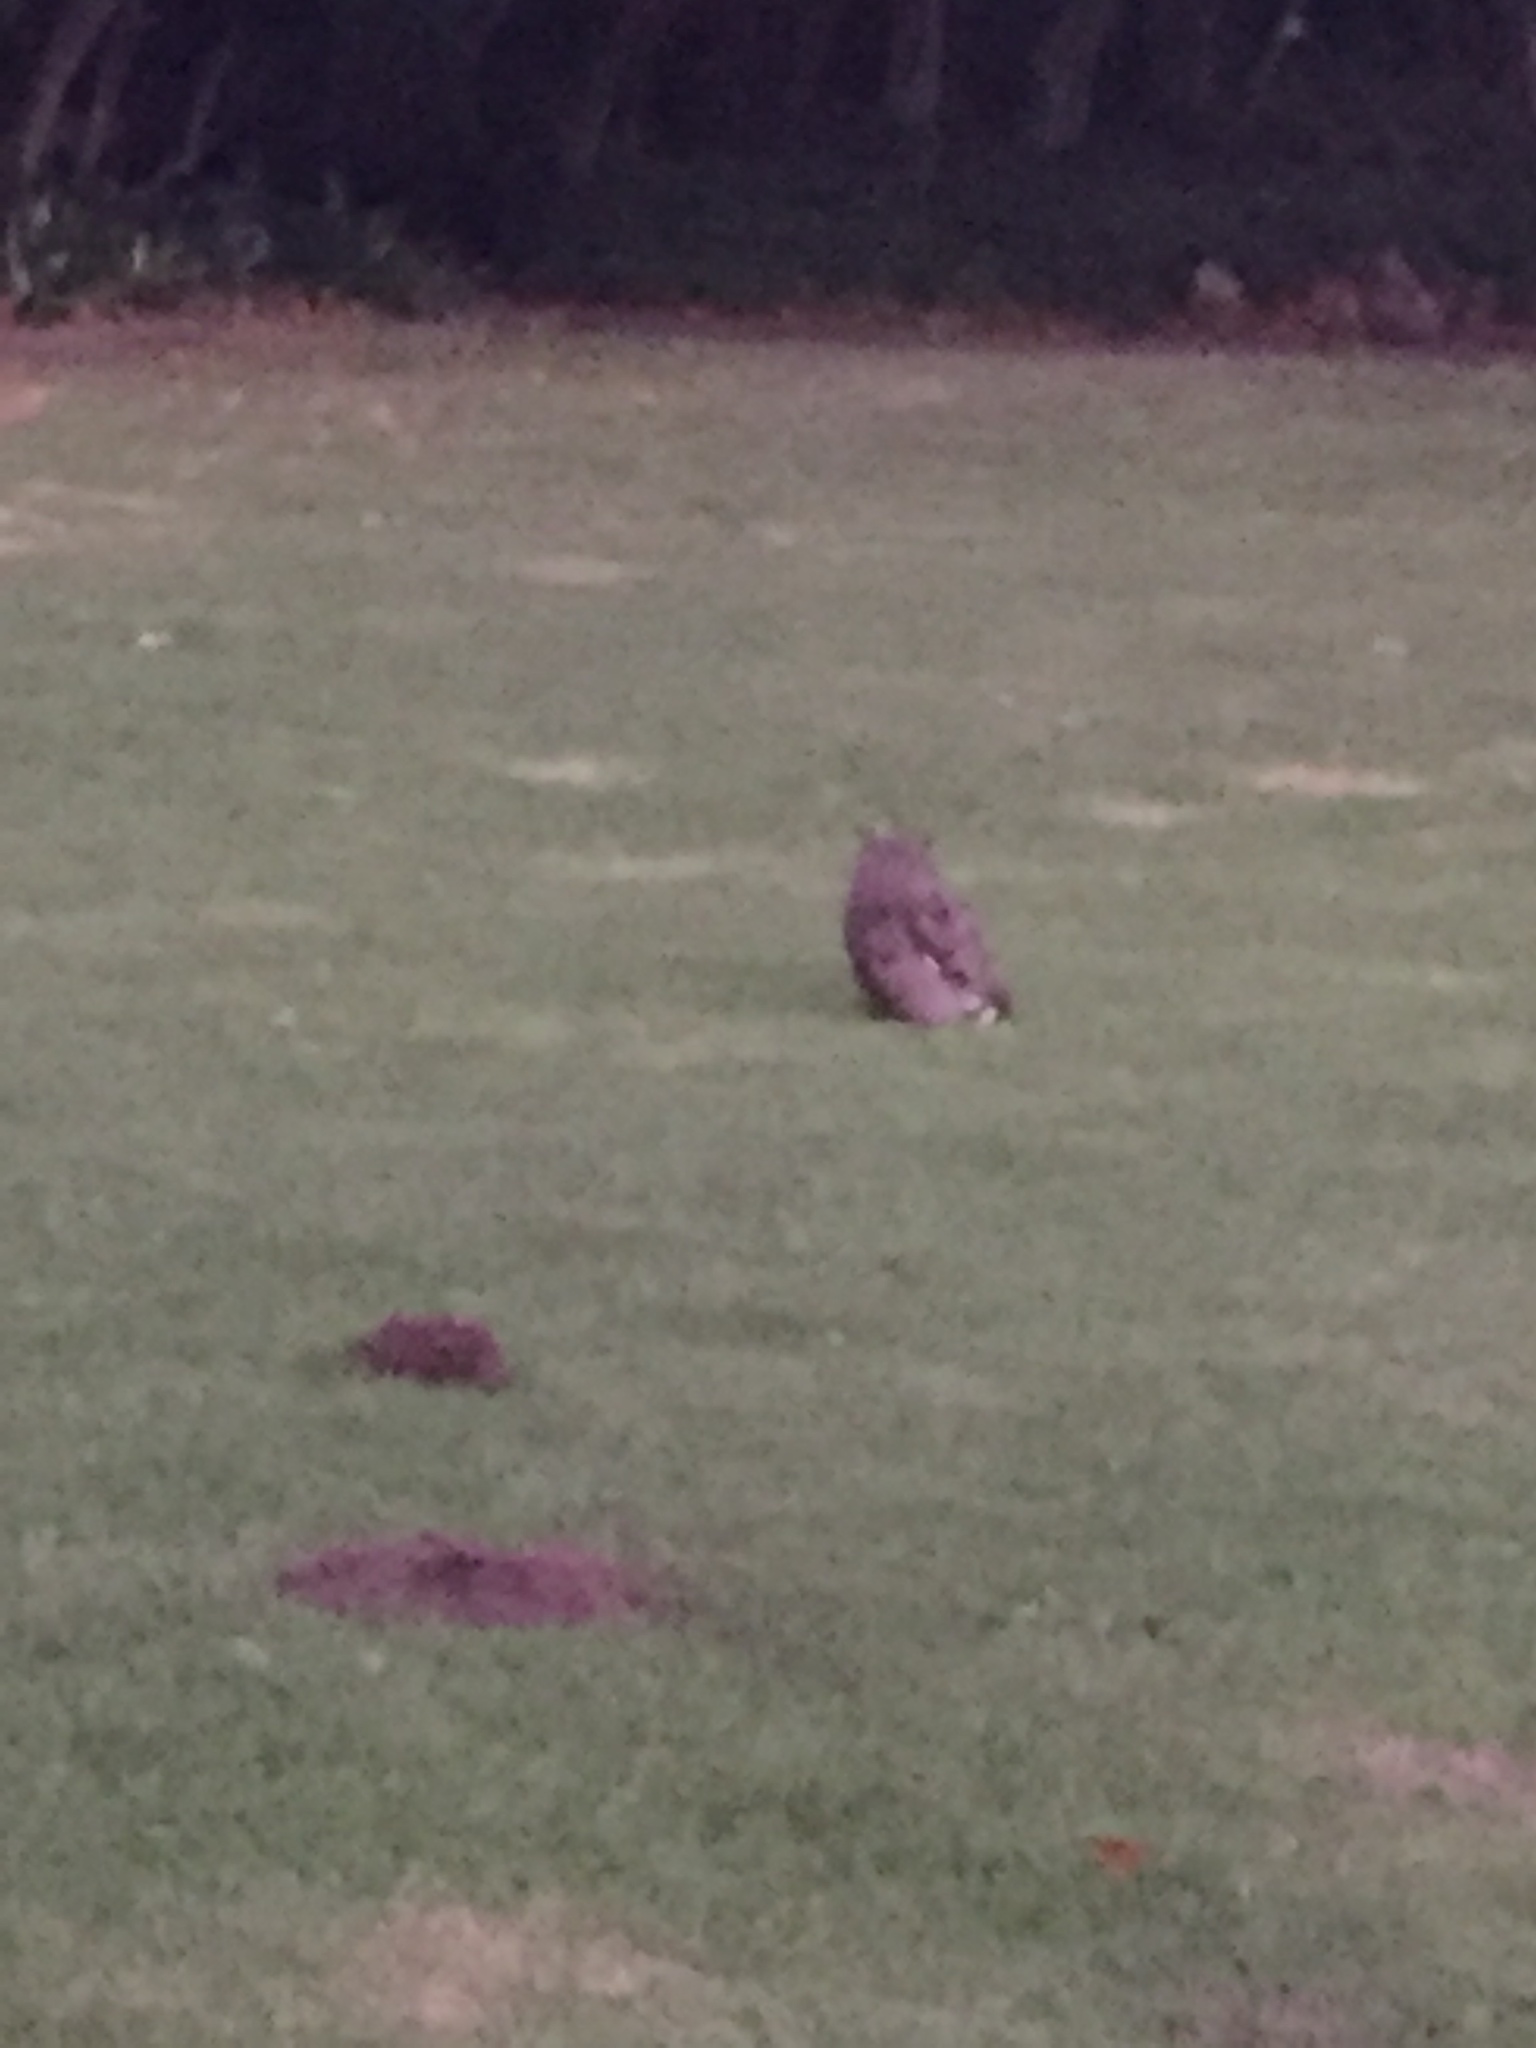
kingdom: Animalia
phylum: Chordata
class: Aves
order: Strigiformes
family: Strigidae
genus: Bubo
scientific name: Bubo africanus
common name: Spotted eagle-owl
